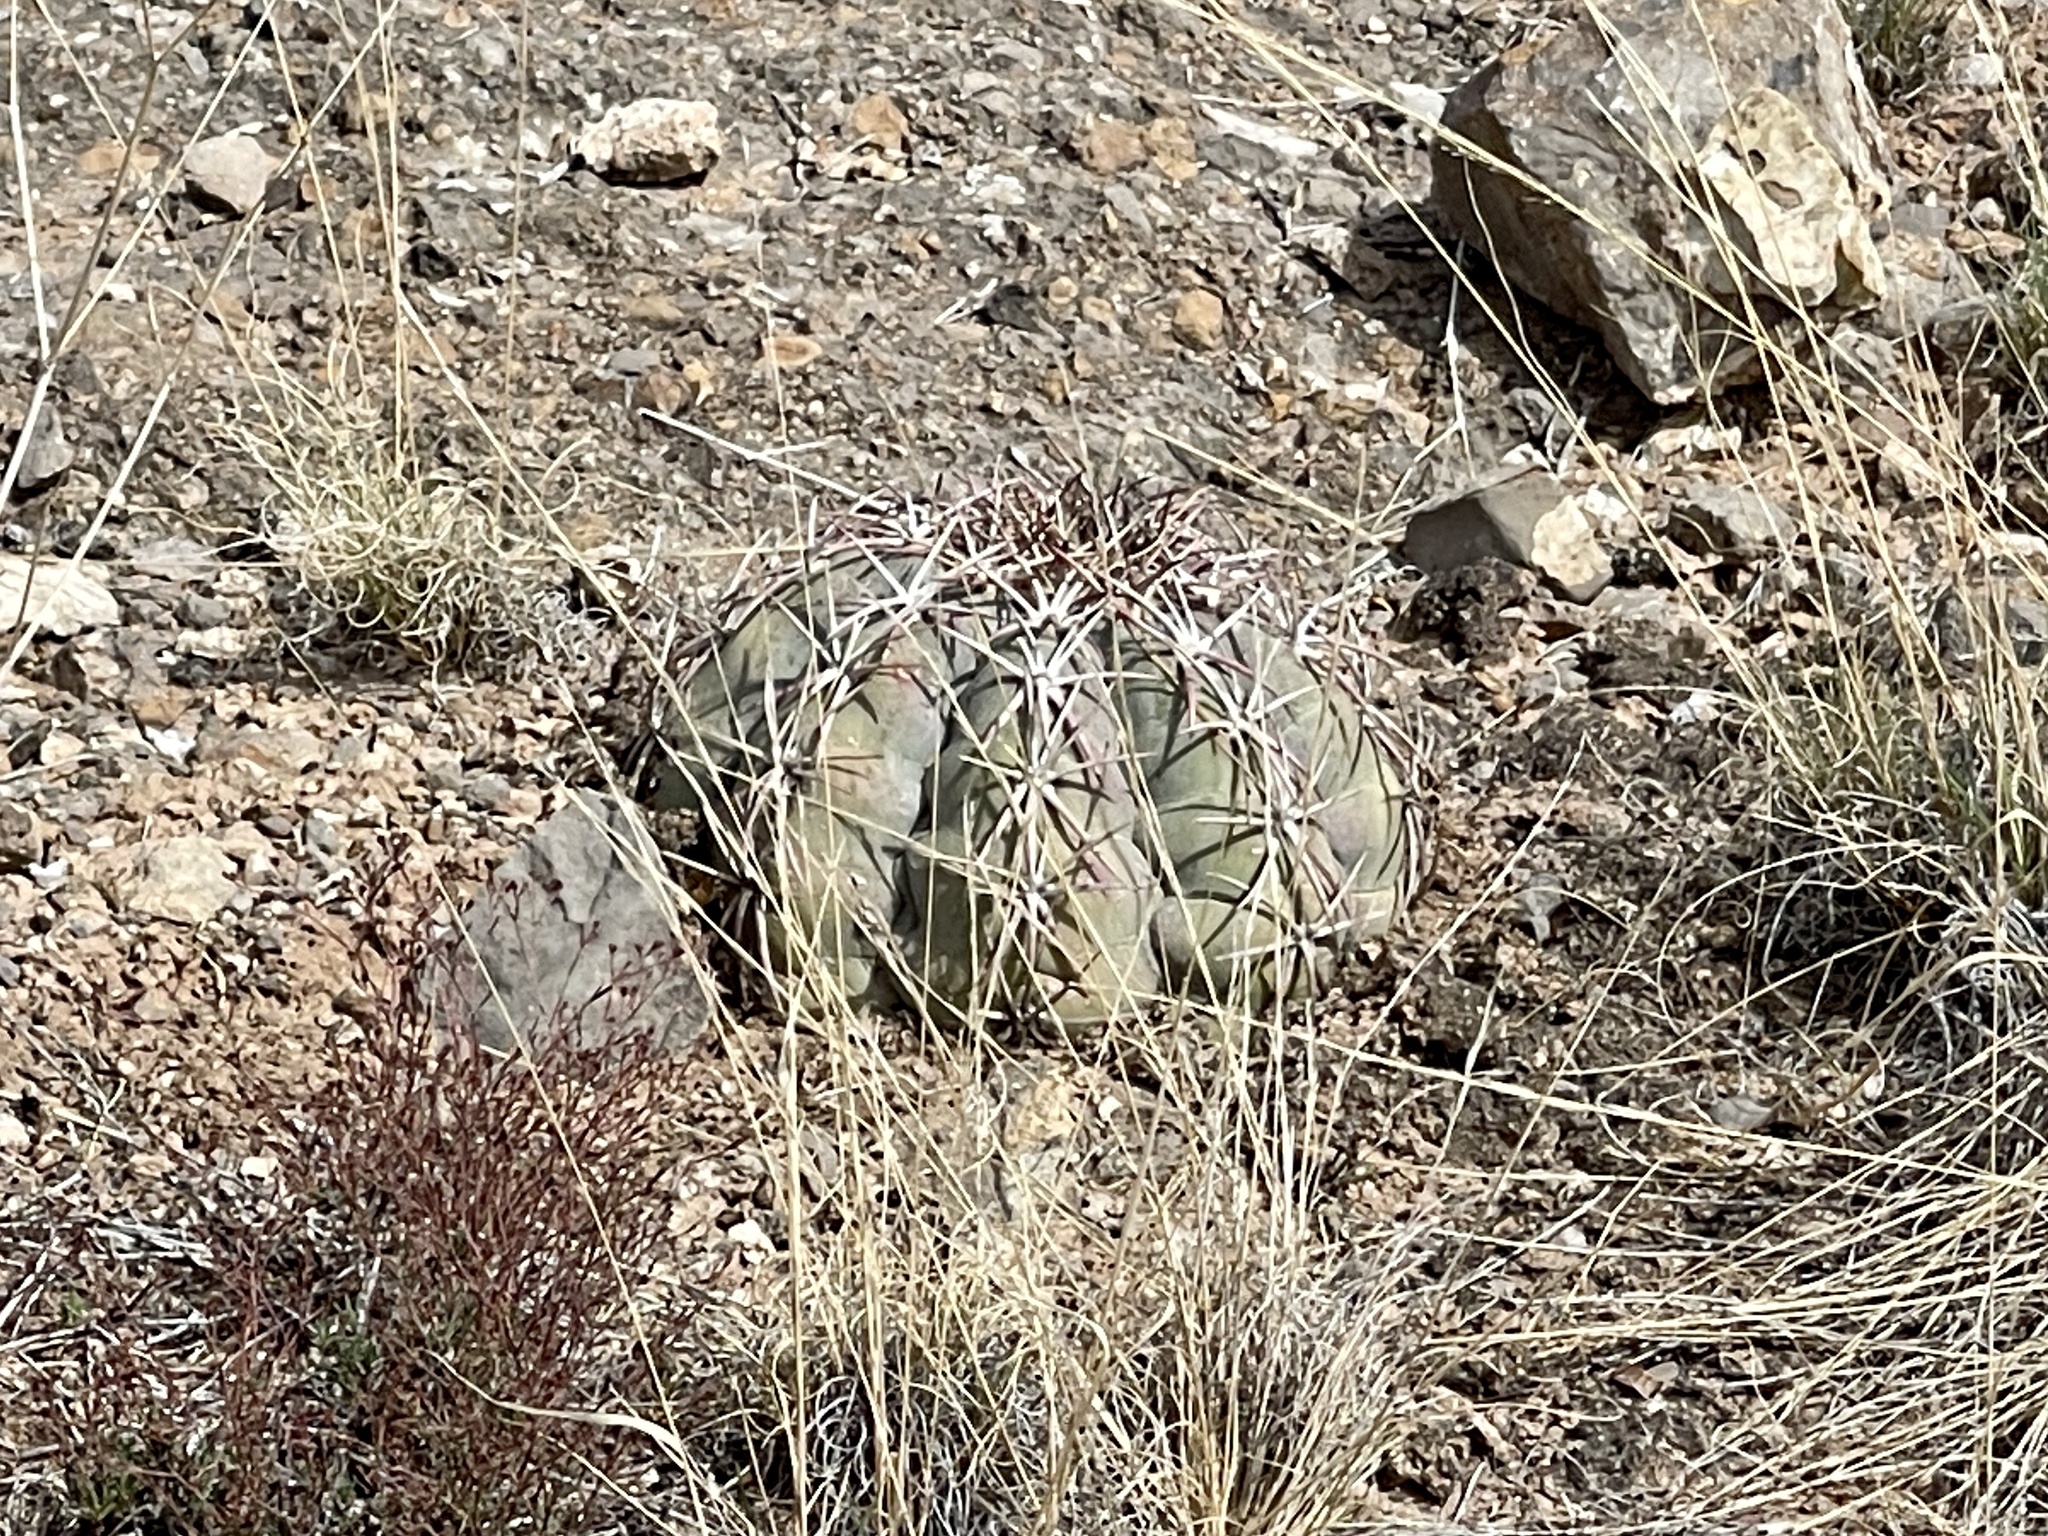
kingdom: Plantae
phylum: Tracheophyta
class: Magnoliopsida
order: Caryophyllales
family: Cactaceae
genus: Echinocactus
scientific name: Echinocactus horizonthalonius
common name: Devilshead
